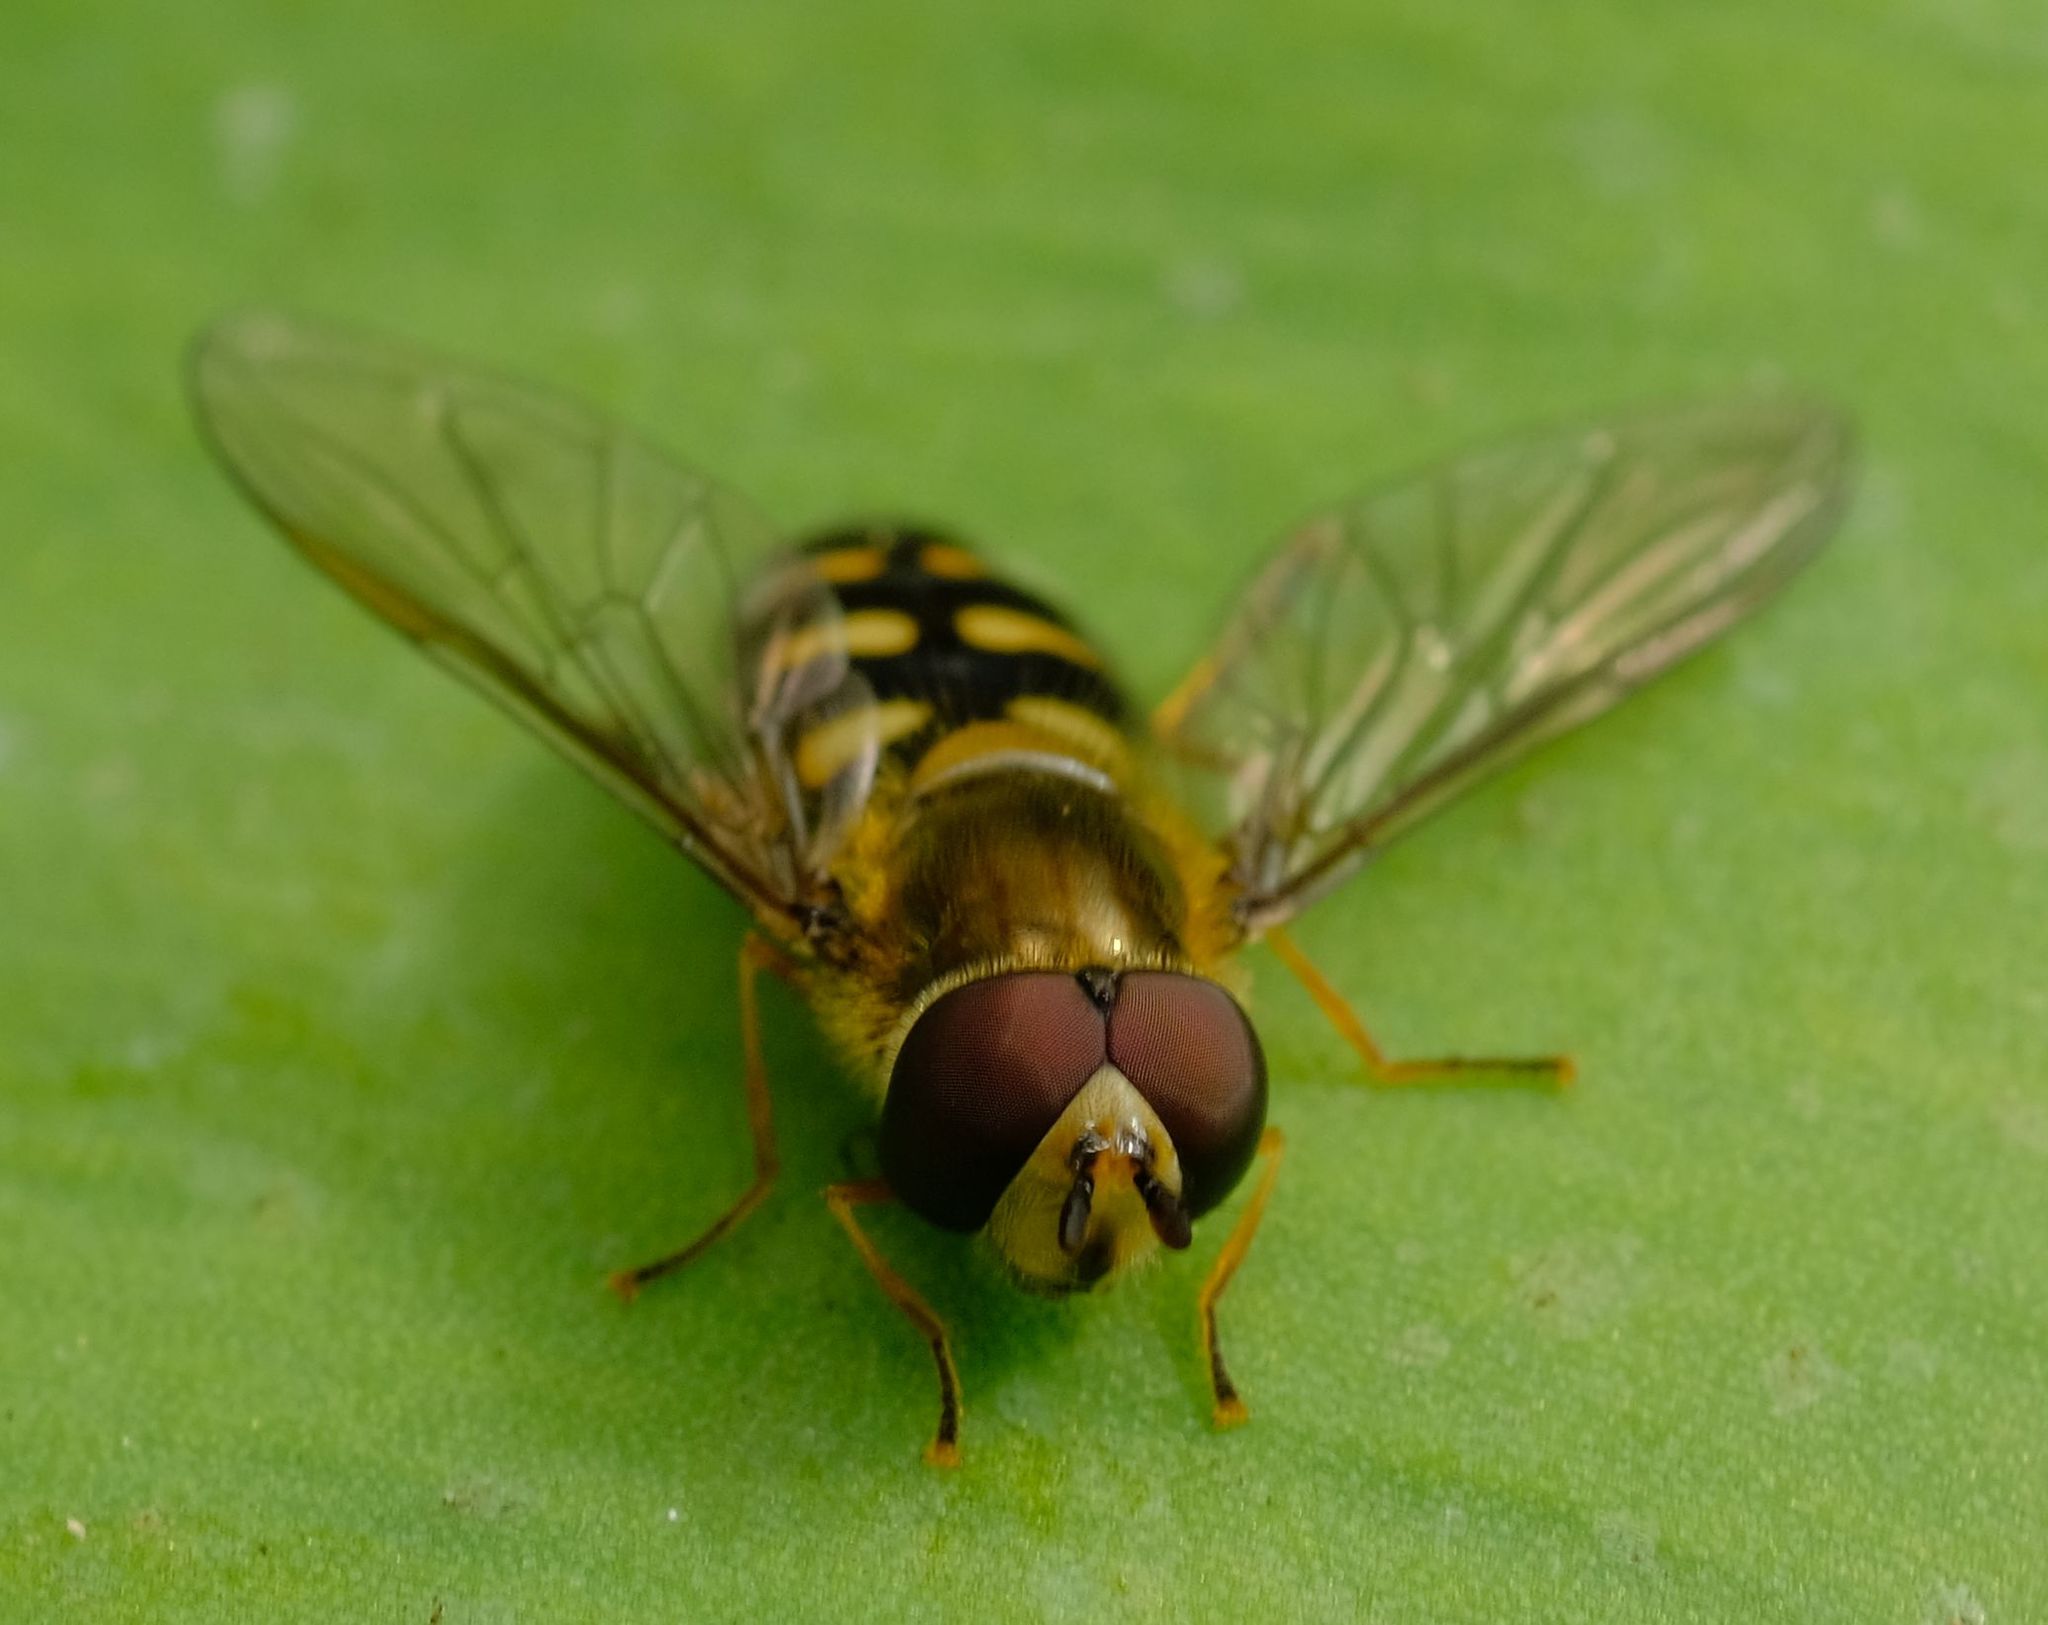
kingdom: Animalia
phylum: Arthropoda
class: Insecta
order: Diptera
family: Syrphidae
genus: Eupeodes
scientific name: Eupeodes
